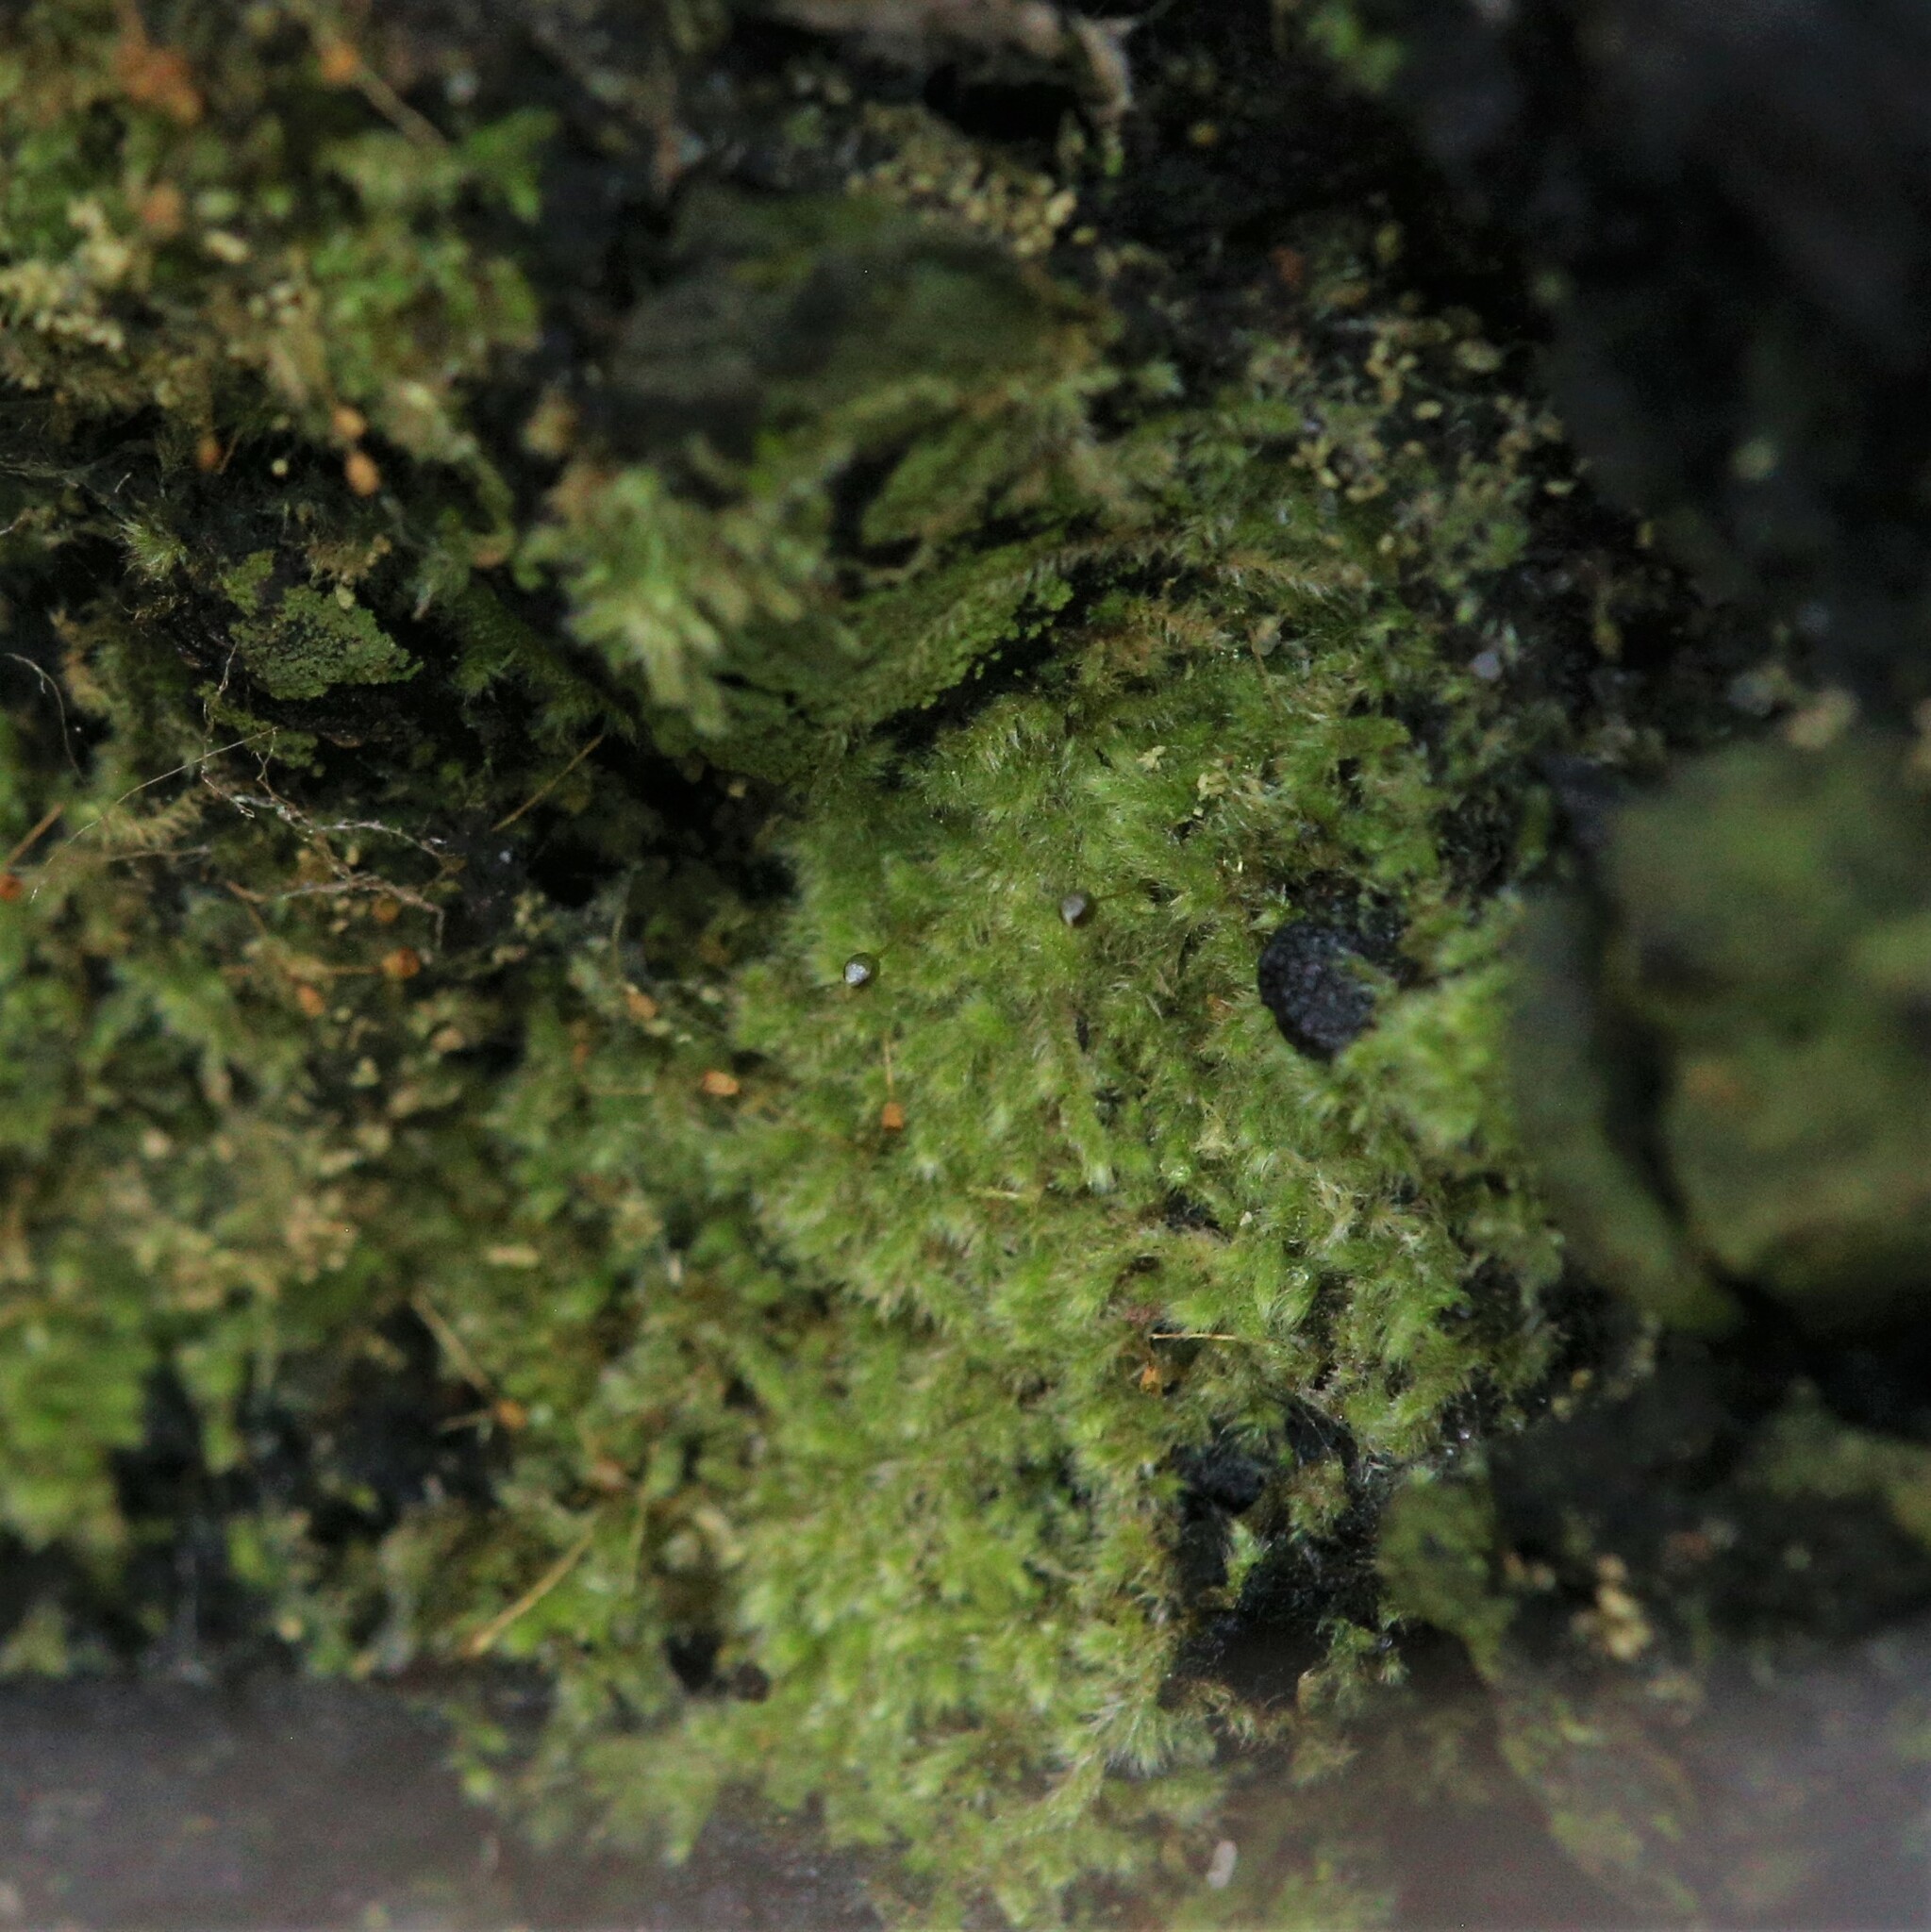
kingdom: Plantae
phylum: Bryophyta
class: Bryopsida
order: Hypnales
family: Fabroniaceae
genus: Fabronia
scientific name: Fabronia hampeana
